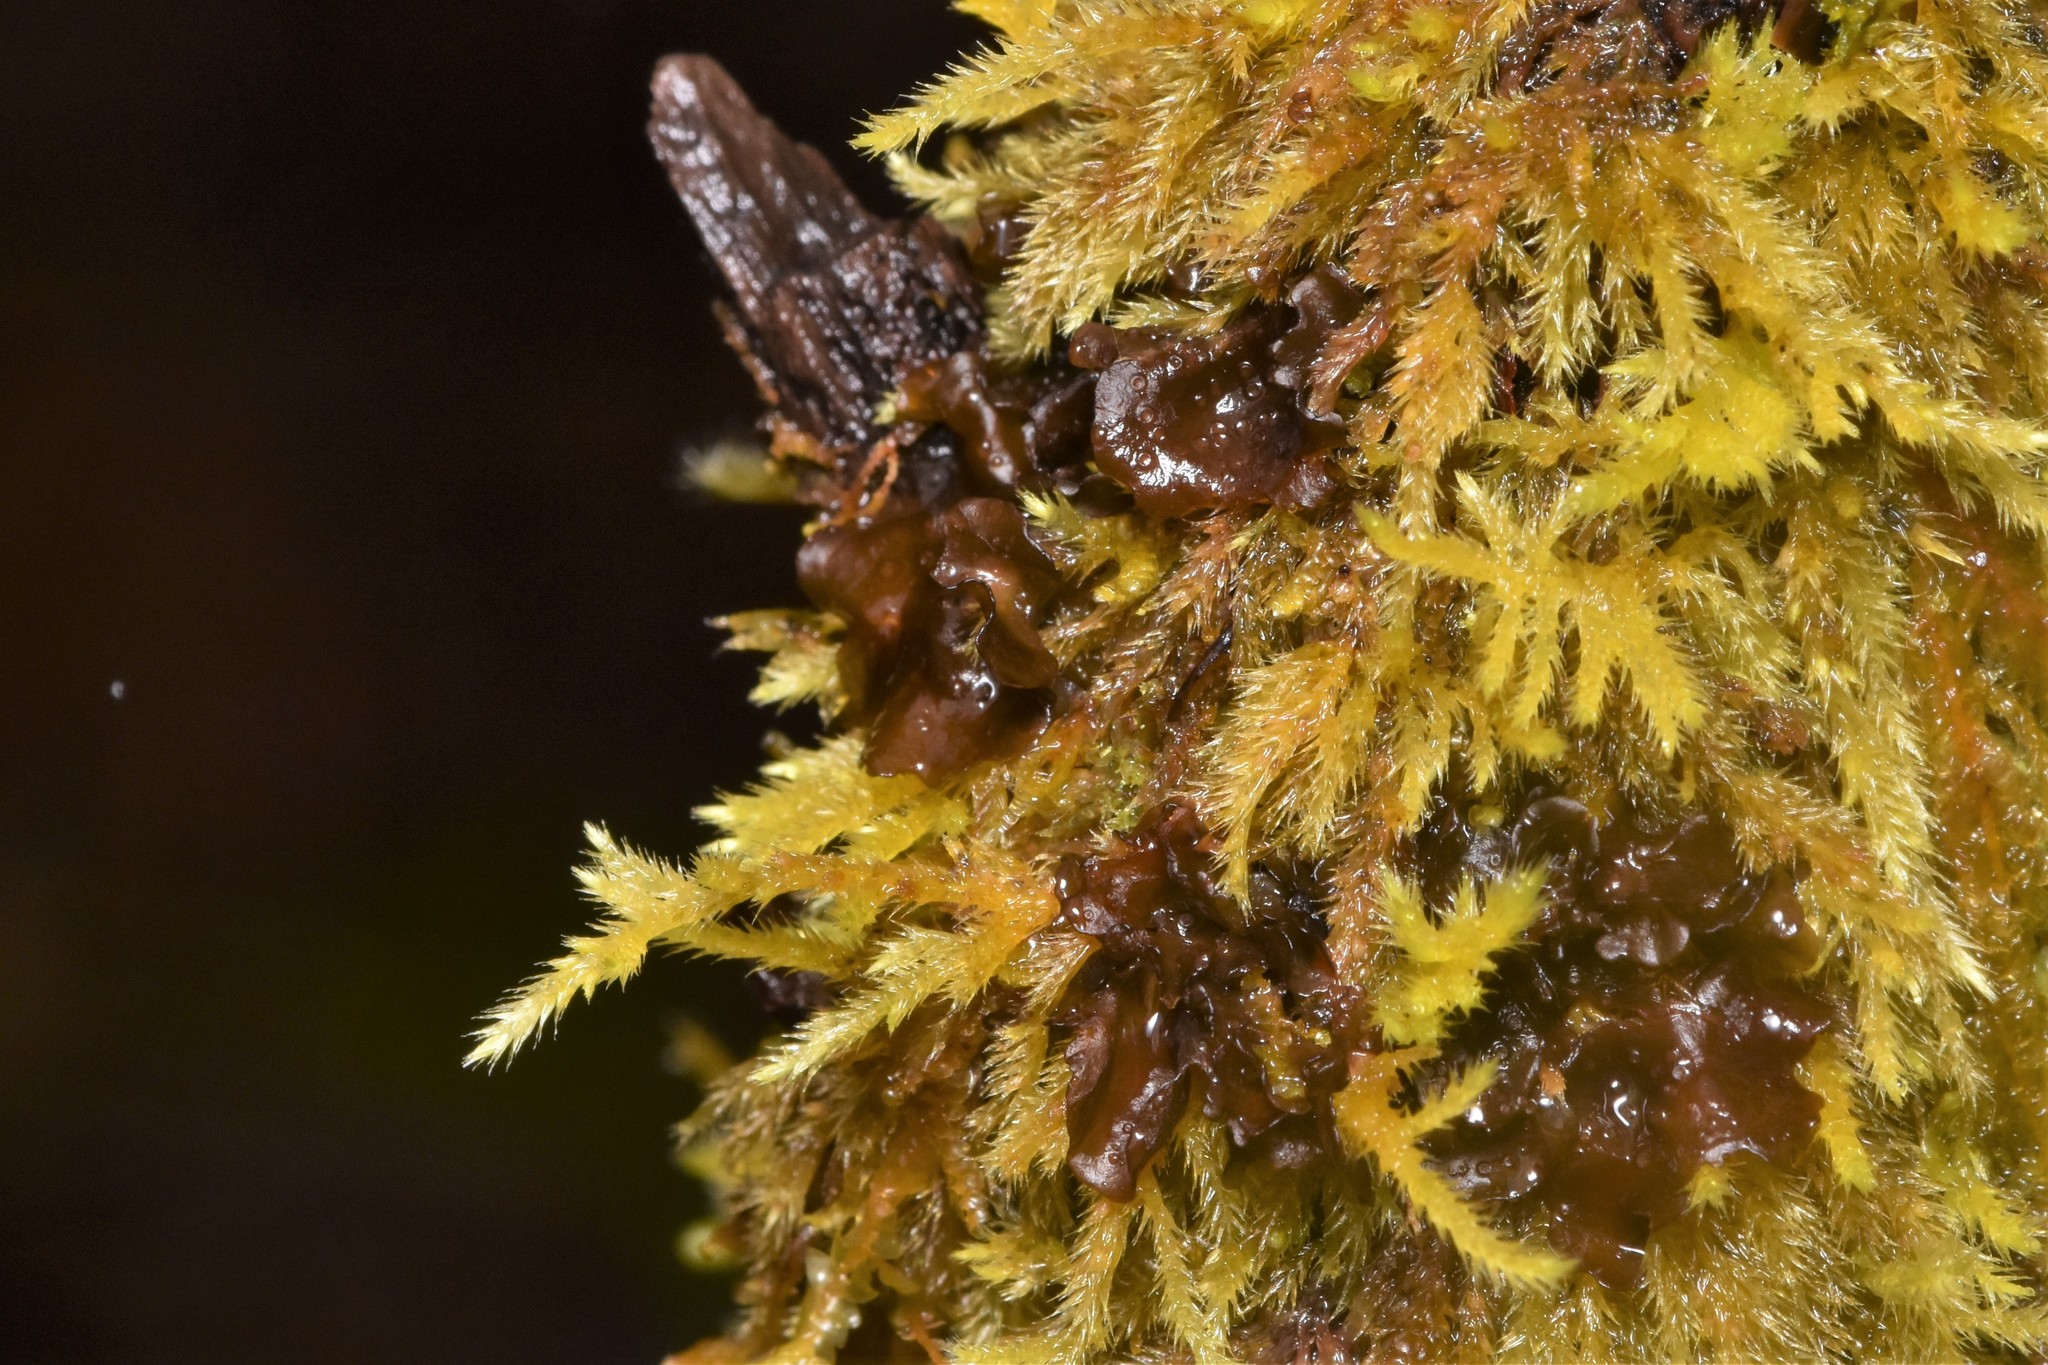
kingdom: Fungi
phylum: Ascomycota
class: Lecanoromycetes
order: Peltigerales
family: Collemataceae
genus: Scytinium
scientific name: Scytinium polycarpum
